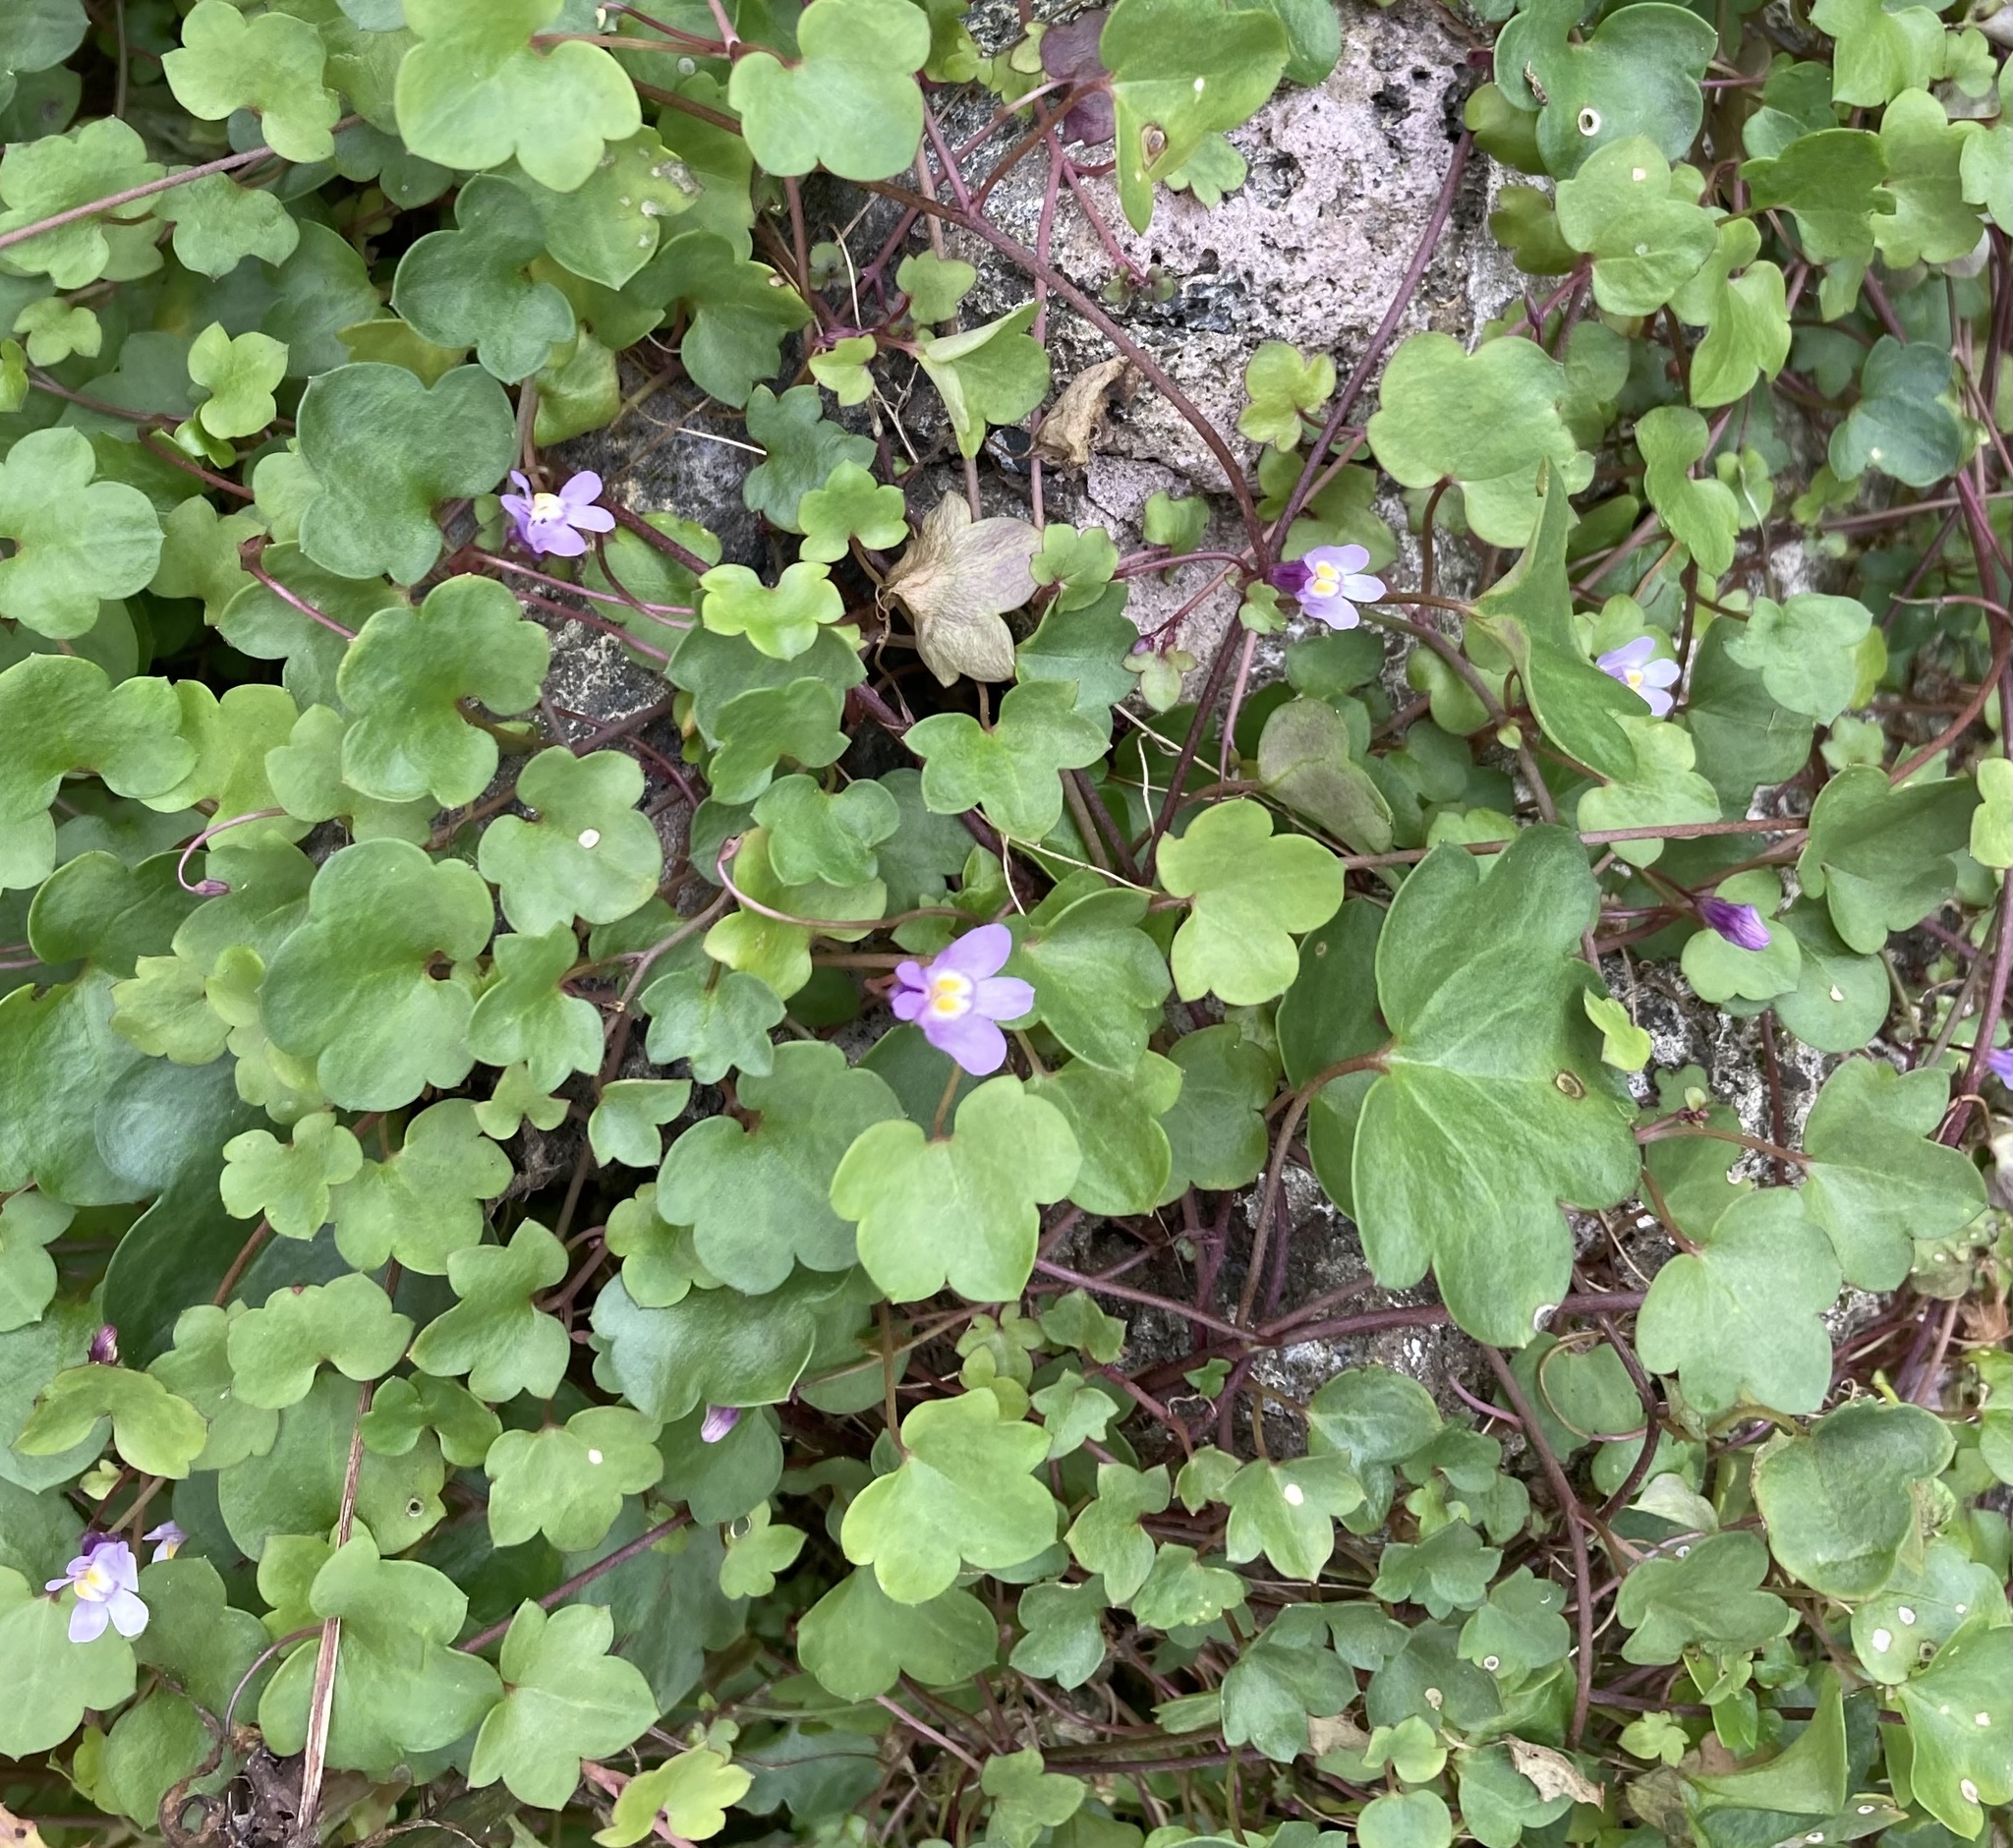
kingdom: Plantae
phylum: Tracheophyta
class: Magnoliopsida
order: Lamiales
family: Plantaginaceae
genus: Cymbalaria
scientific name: Cymbalaria muralis
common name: Ivy-leaved toadflax
